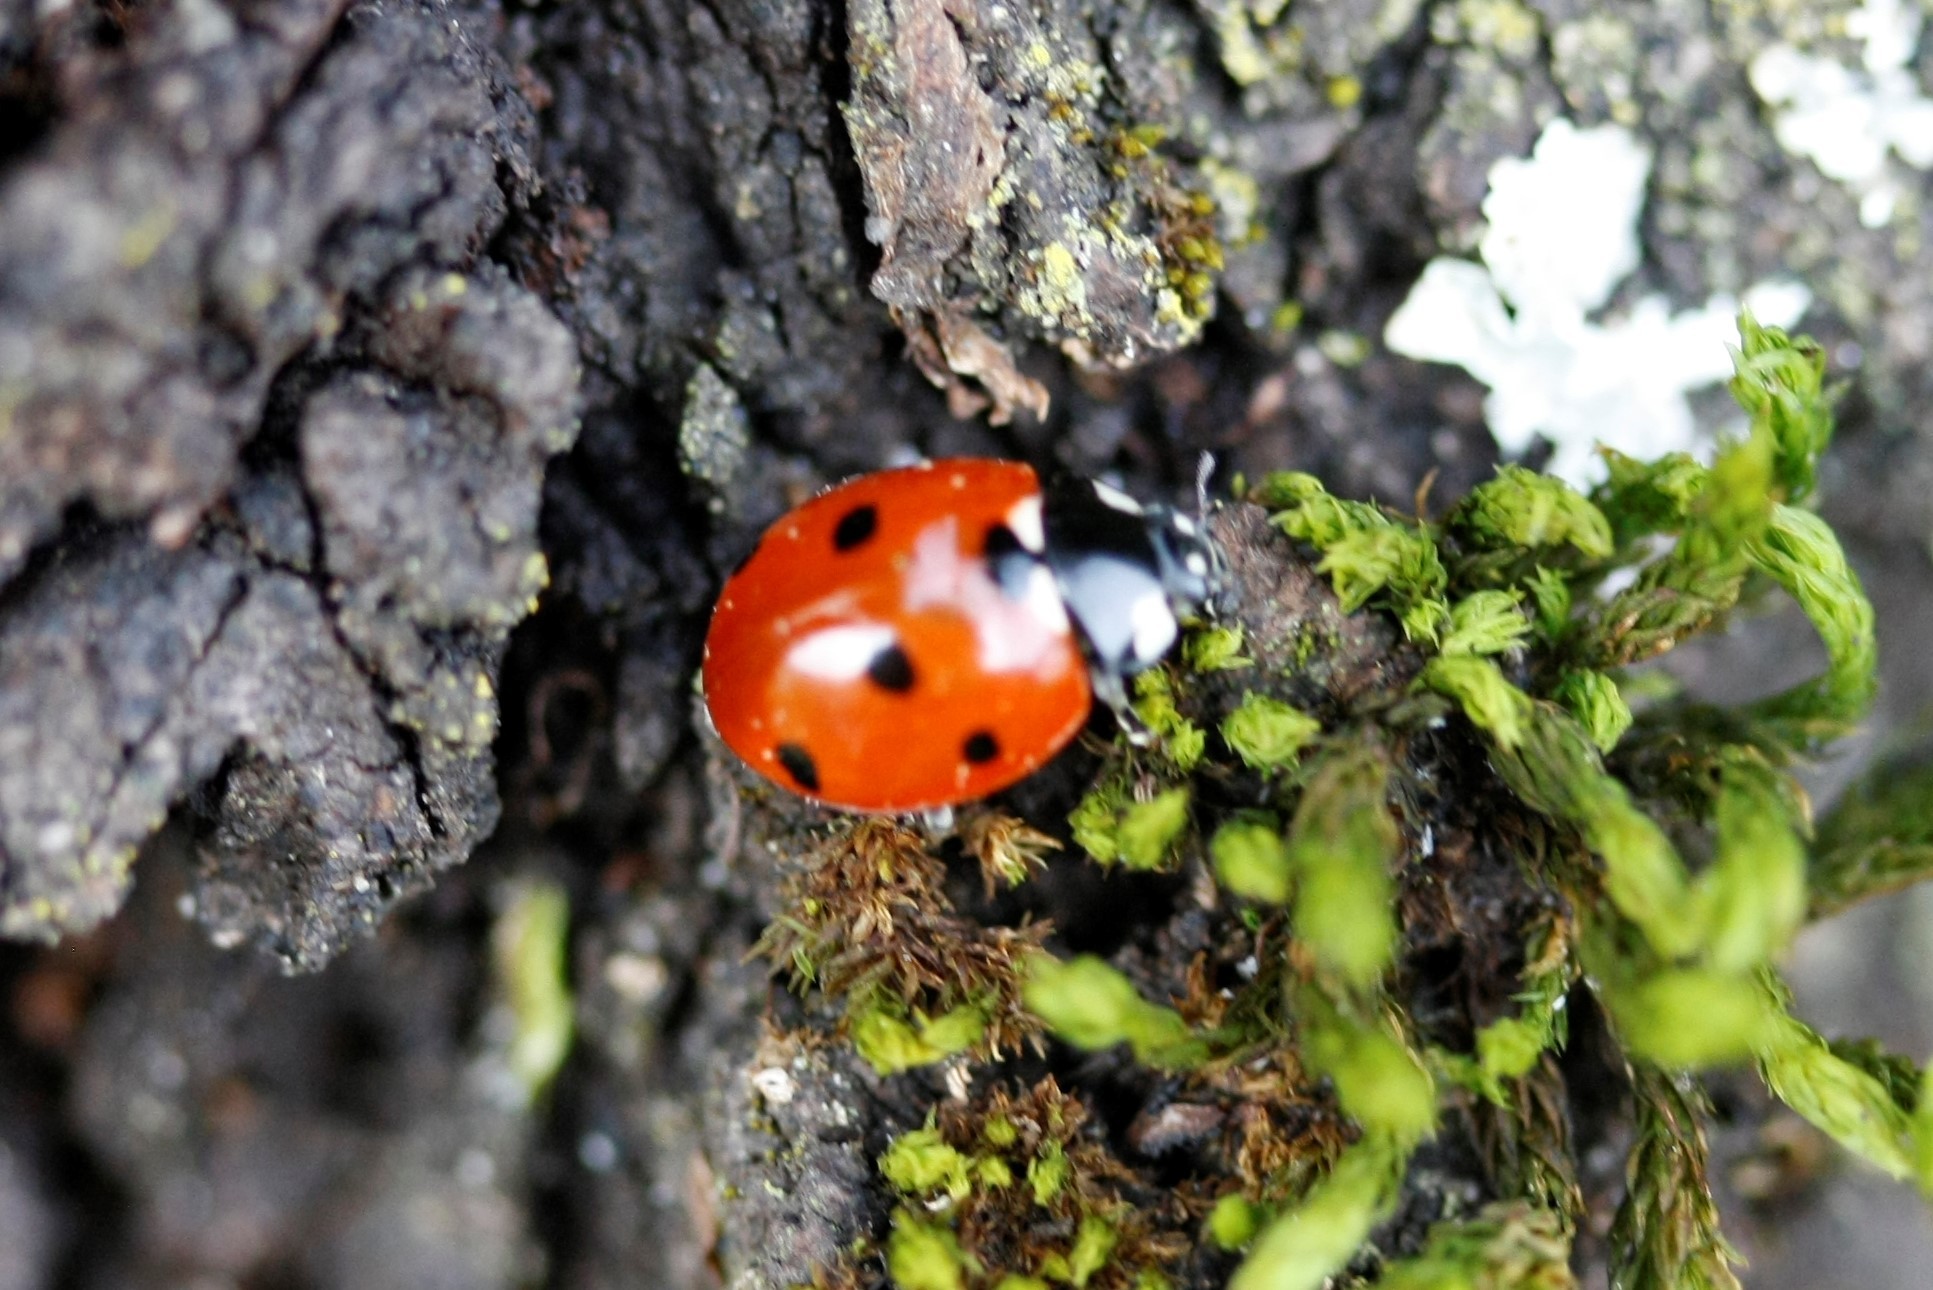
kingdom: Animalia
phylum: Arthropoda
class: Insecta
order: Coleoptera
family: Coccinellidae
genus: Coccinella
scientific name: Coccinella septempunctata
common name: Sevenspotted lady beetle
